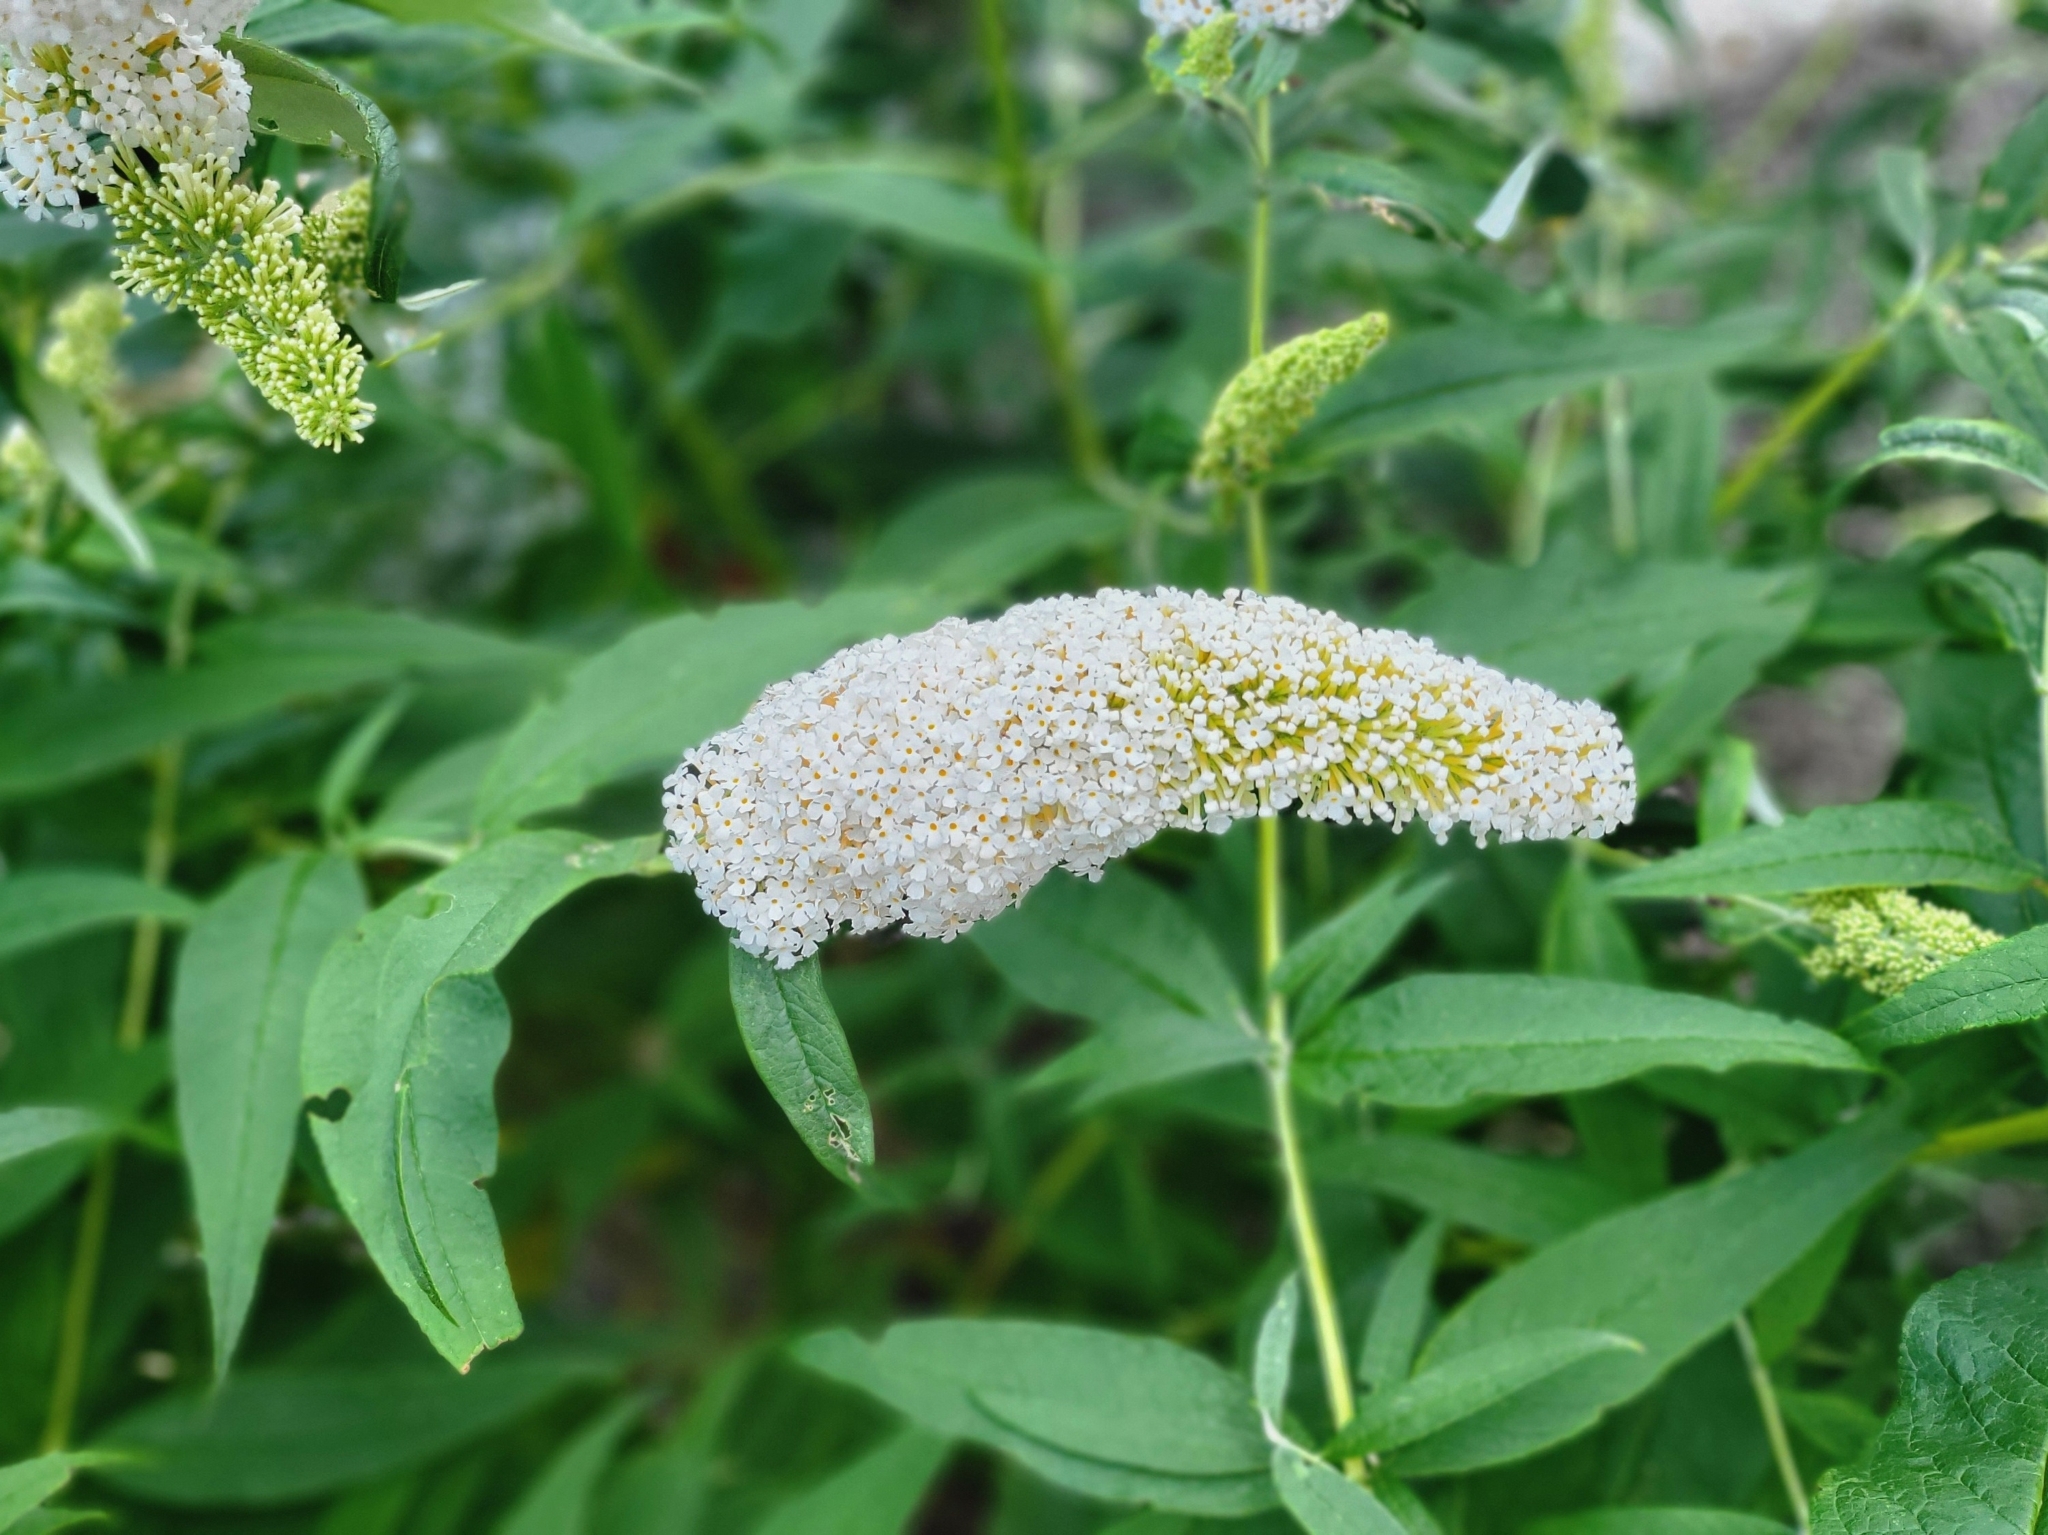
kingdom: Plantae
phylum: Tracheophyta
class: Magnoliopsida
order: Lamiales
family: Scrophulariaceae
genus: Buddleja
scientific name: Buddleja davidii
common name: Butterfly-bush
